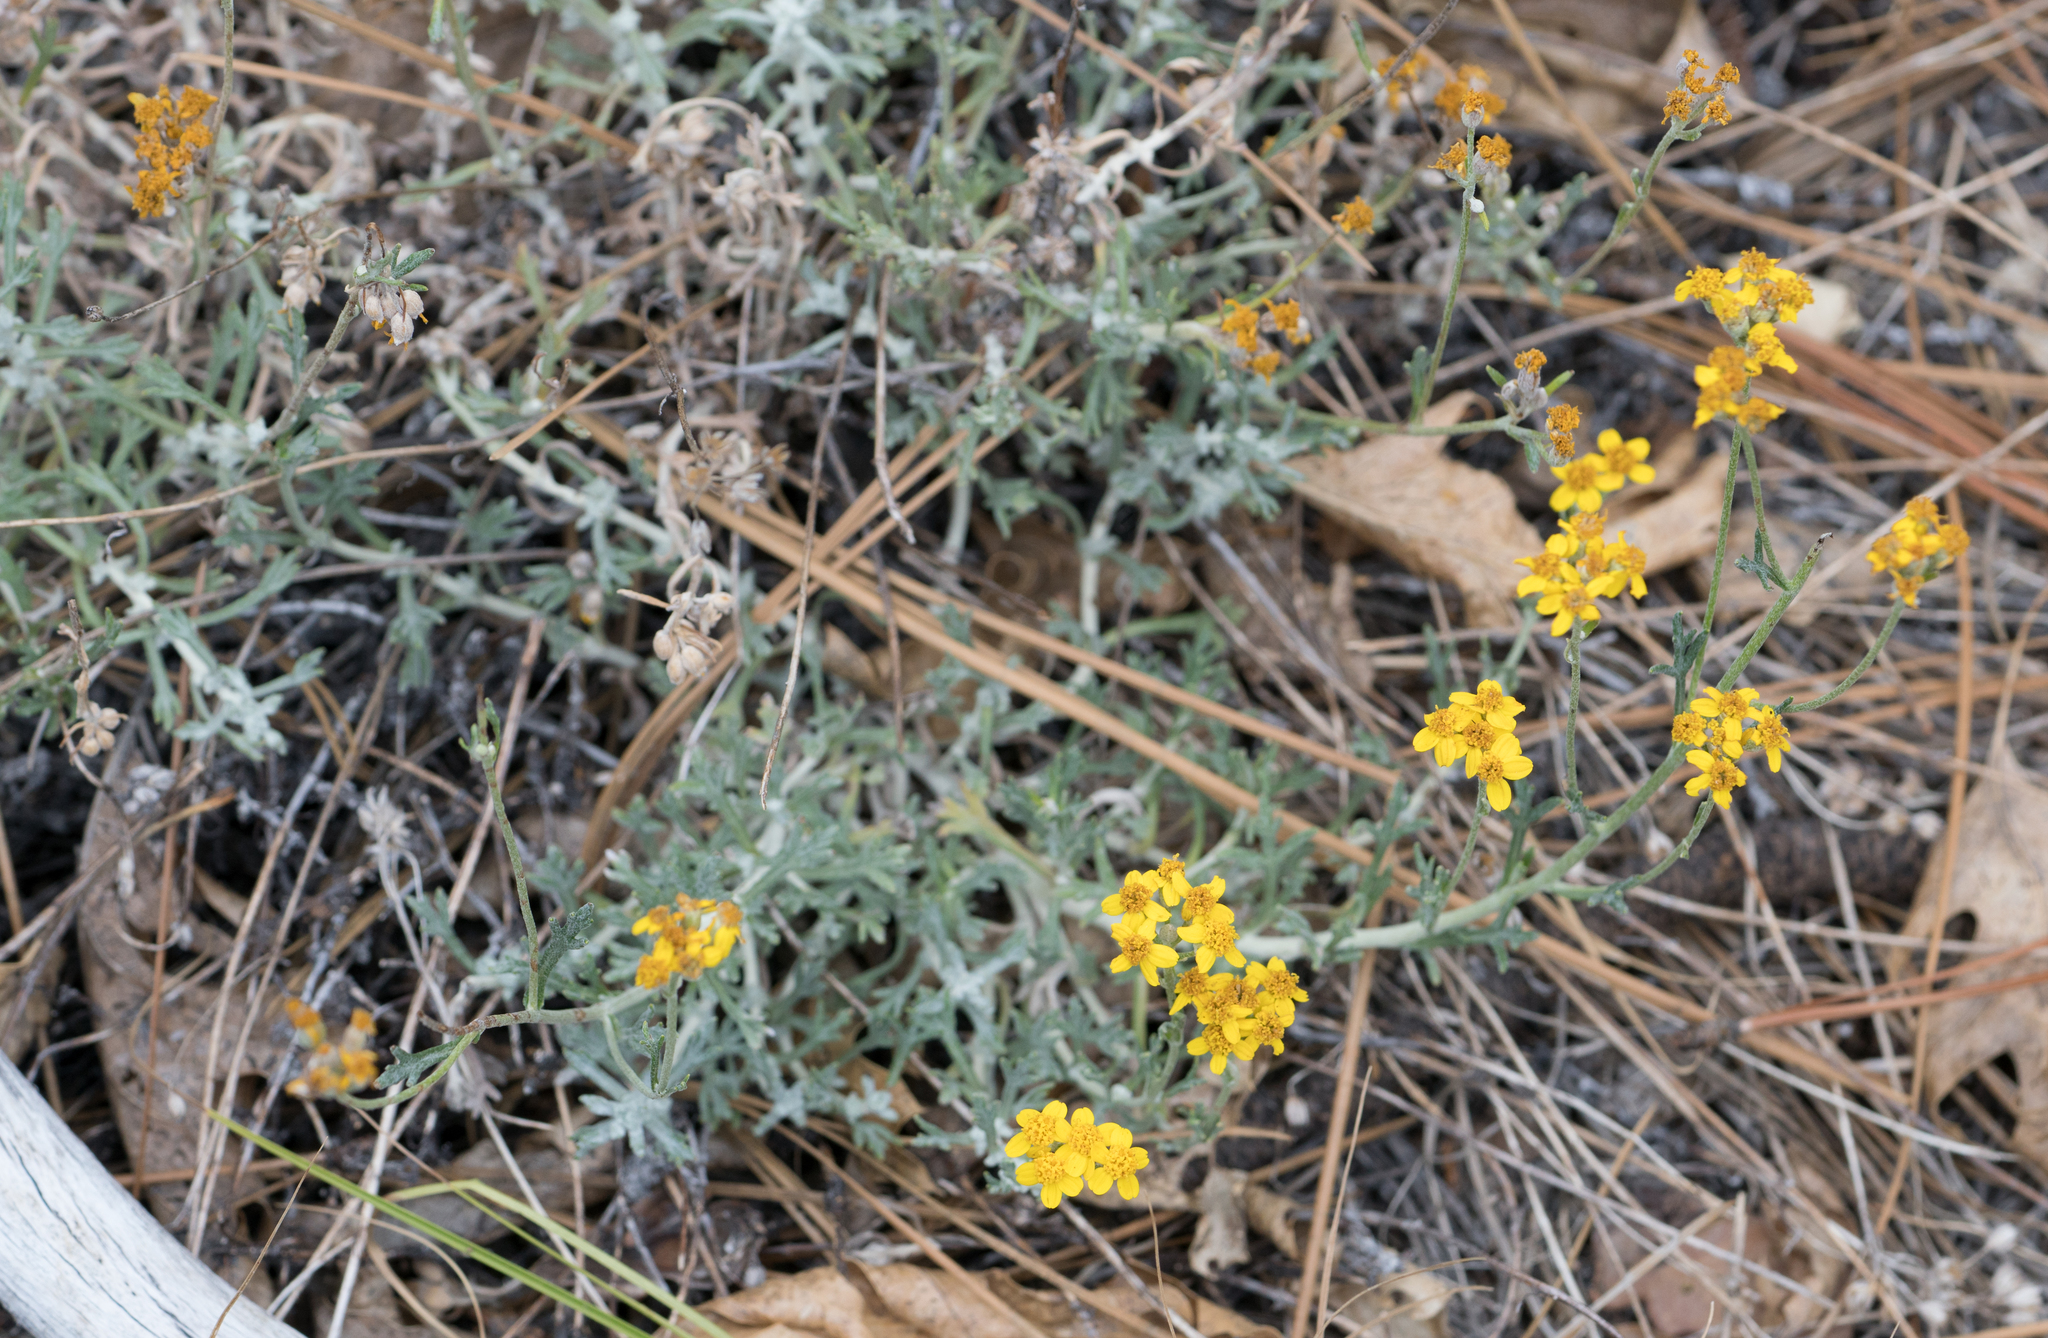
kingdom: Plantae
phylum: Tracheophyta
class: Magnoliopsida
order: Asterales
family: Asteraceae
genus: Eriophyllum
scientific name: Eriophyllum confertiflorum
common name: Golden-yarrow
